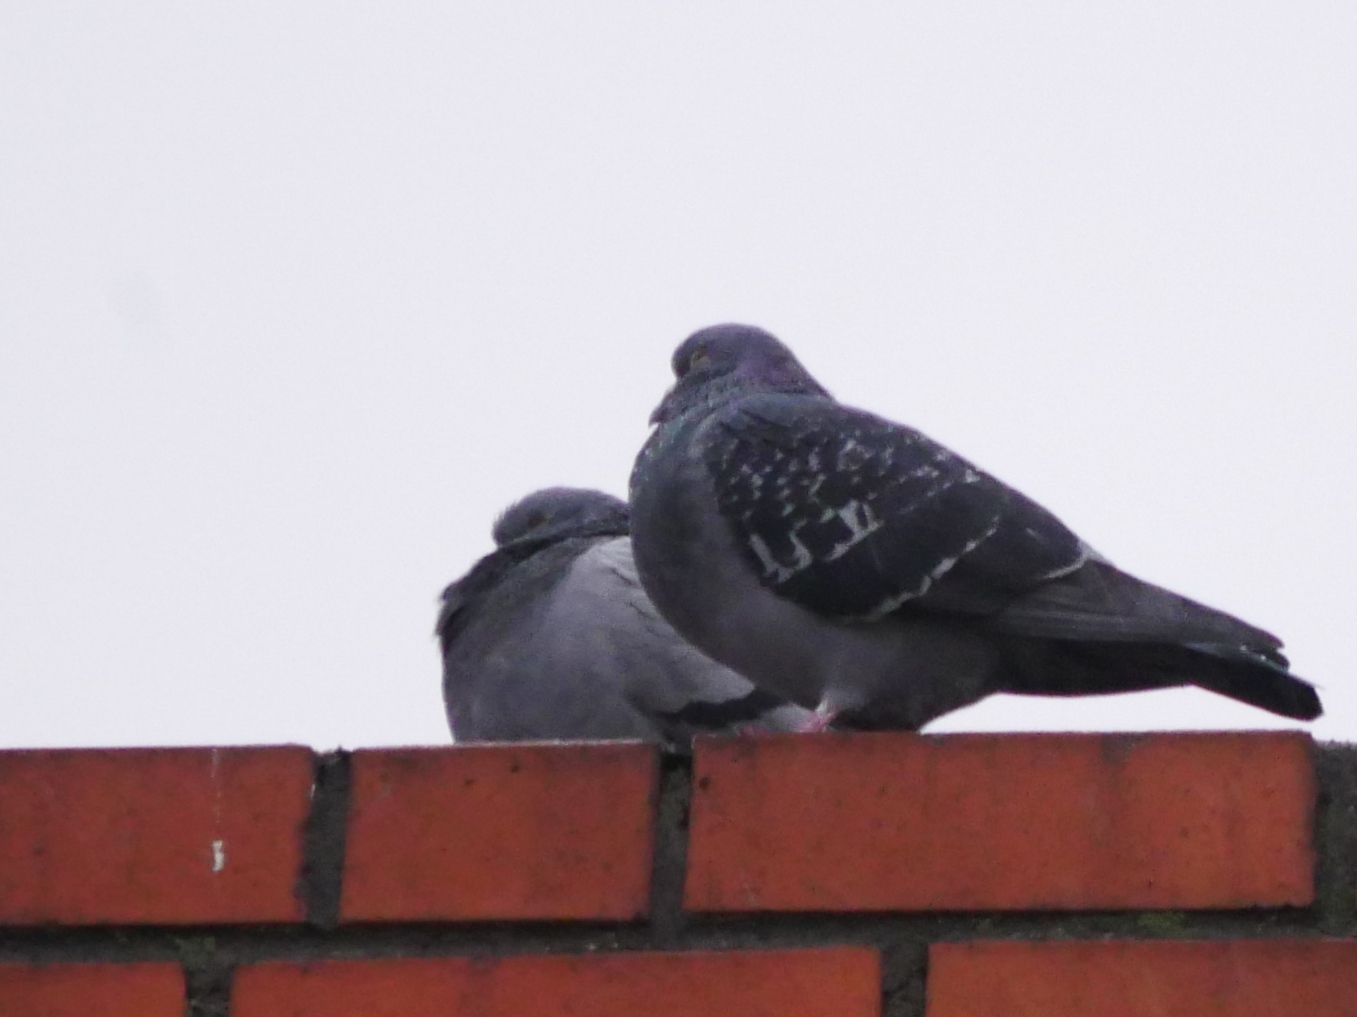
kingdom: Animalia
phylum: Chordata
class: Aves
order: Columbiformes
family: Columbidae
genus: Columba
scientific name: Columba livia
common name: Rock pigeon
